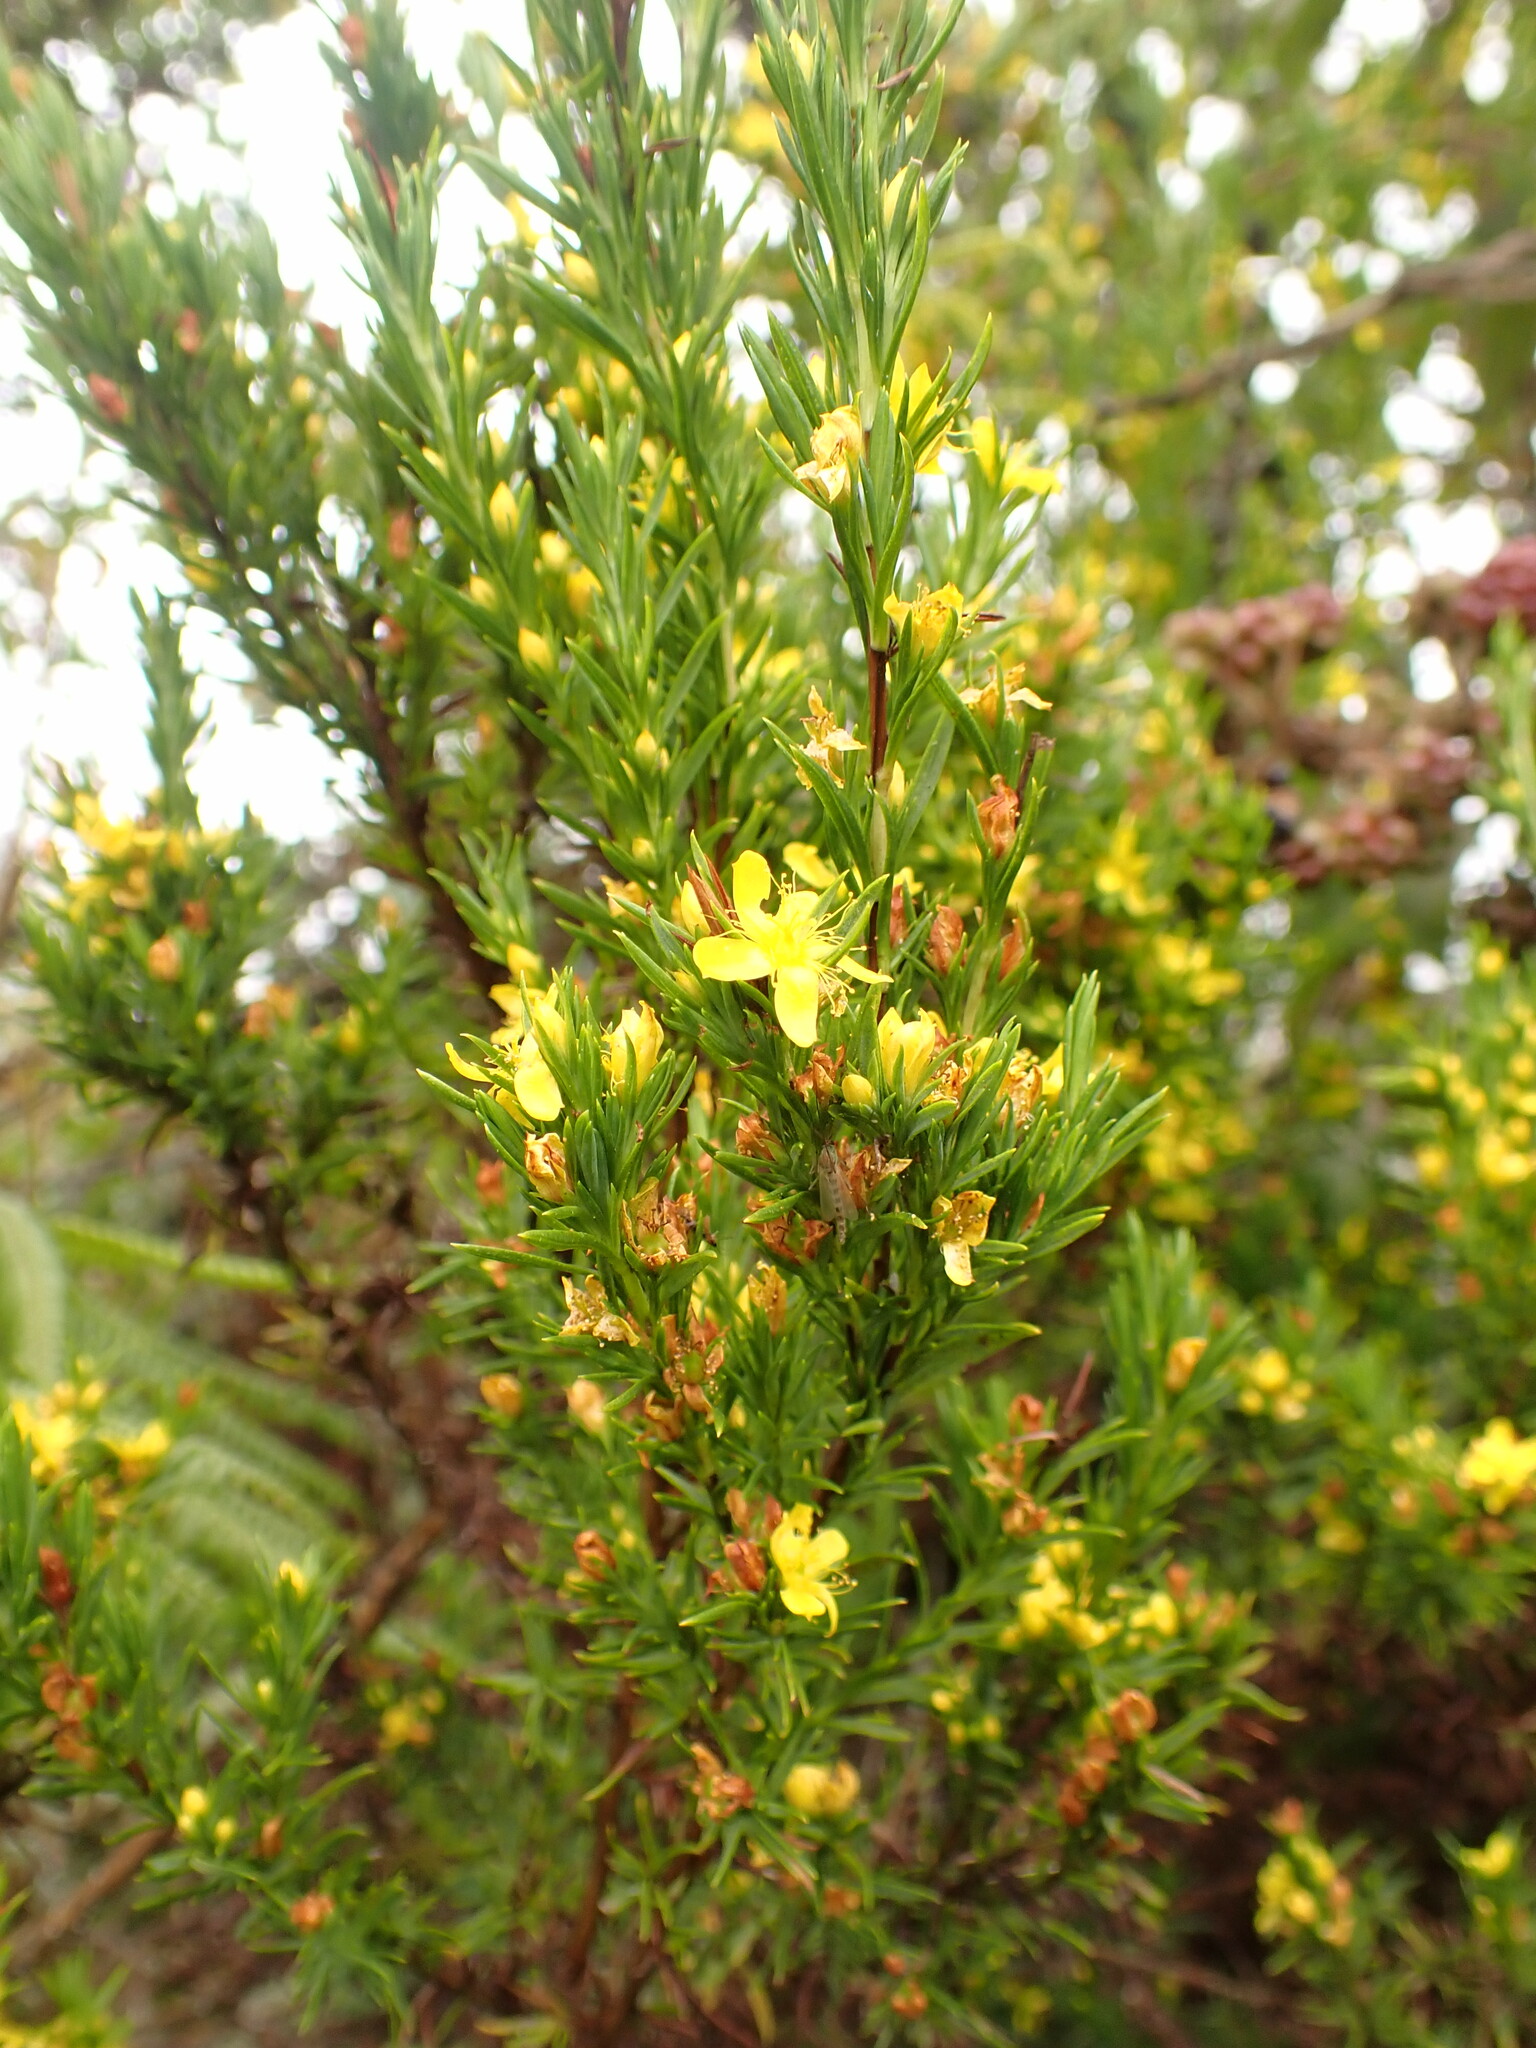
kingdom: Plantae
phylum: Tracheophyta
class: Magnoliopsida
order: Malpighiales
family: Hypericaceae
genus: Hypericum
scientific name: Hypericum juniperinum
